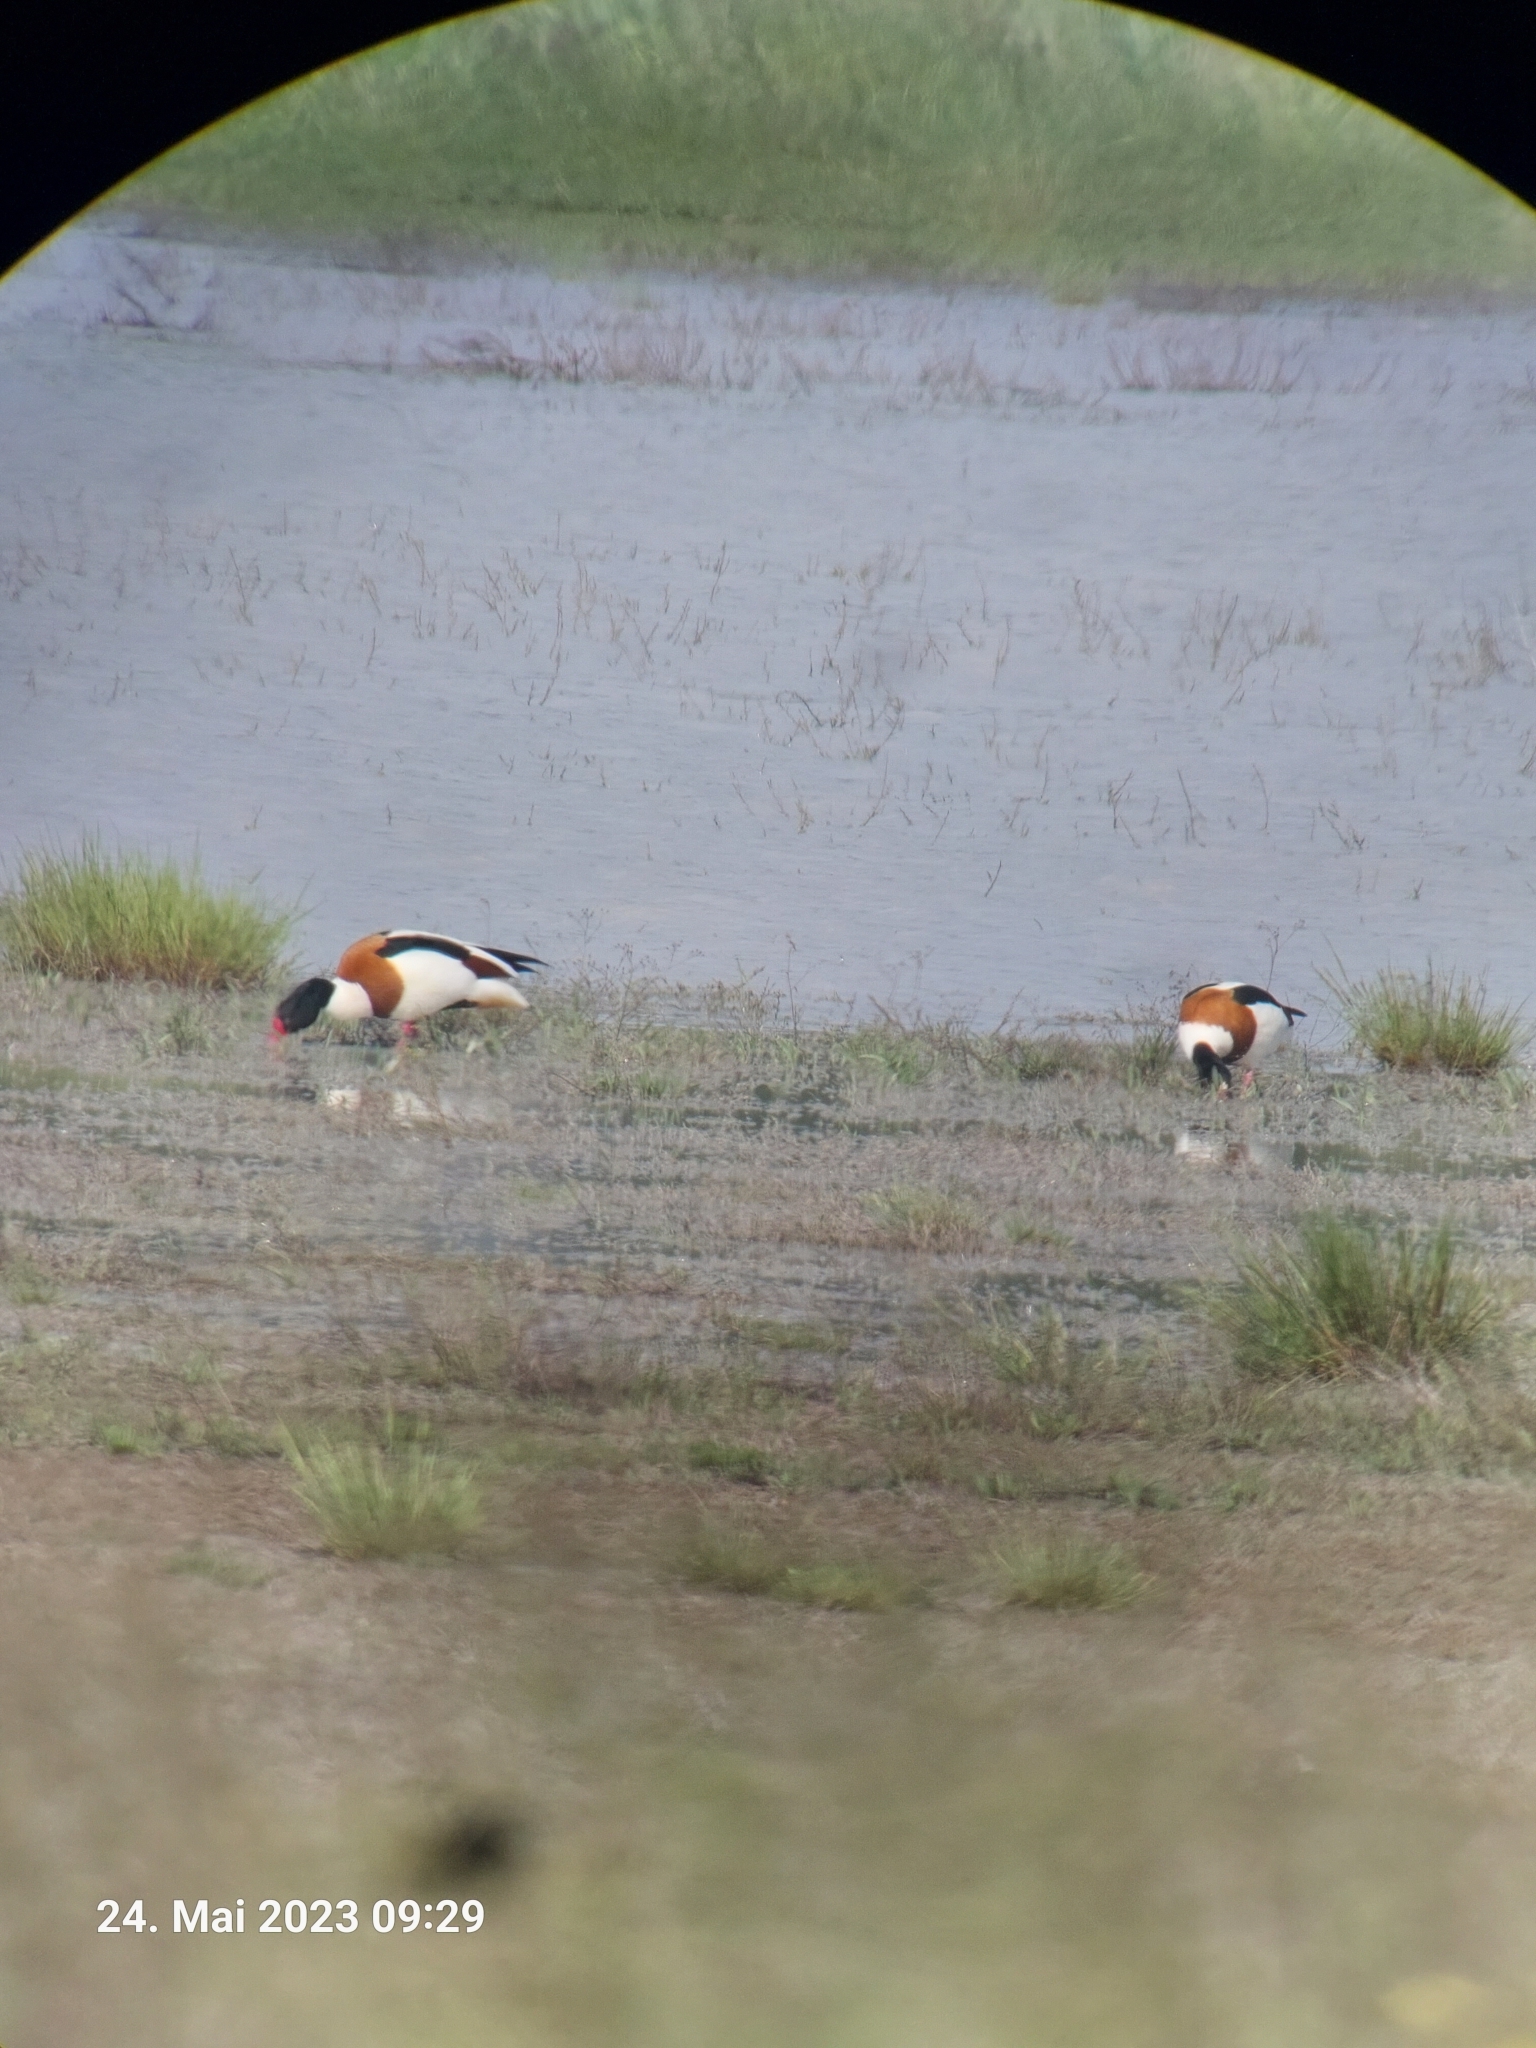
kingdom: Animalia
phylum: Chordata
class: Aves
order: Anseriformes
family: Anatidae
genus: Tadorna
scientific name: Tadorna tadorna
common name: Common shelduck
